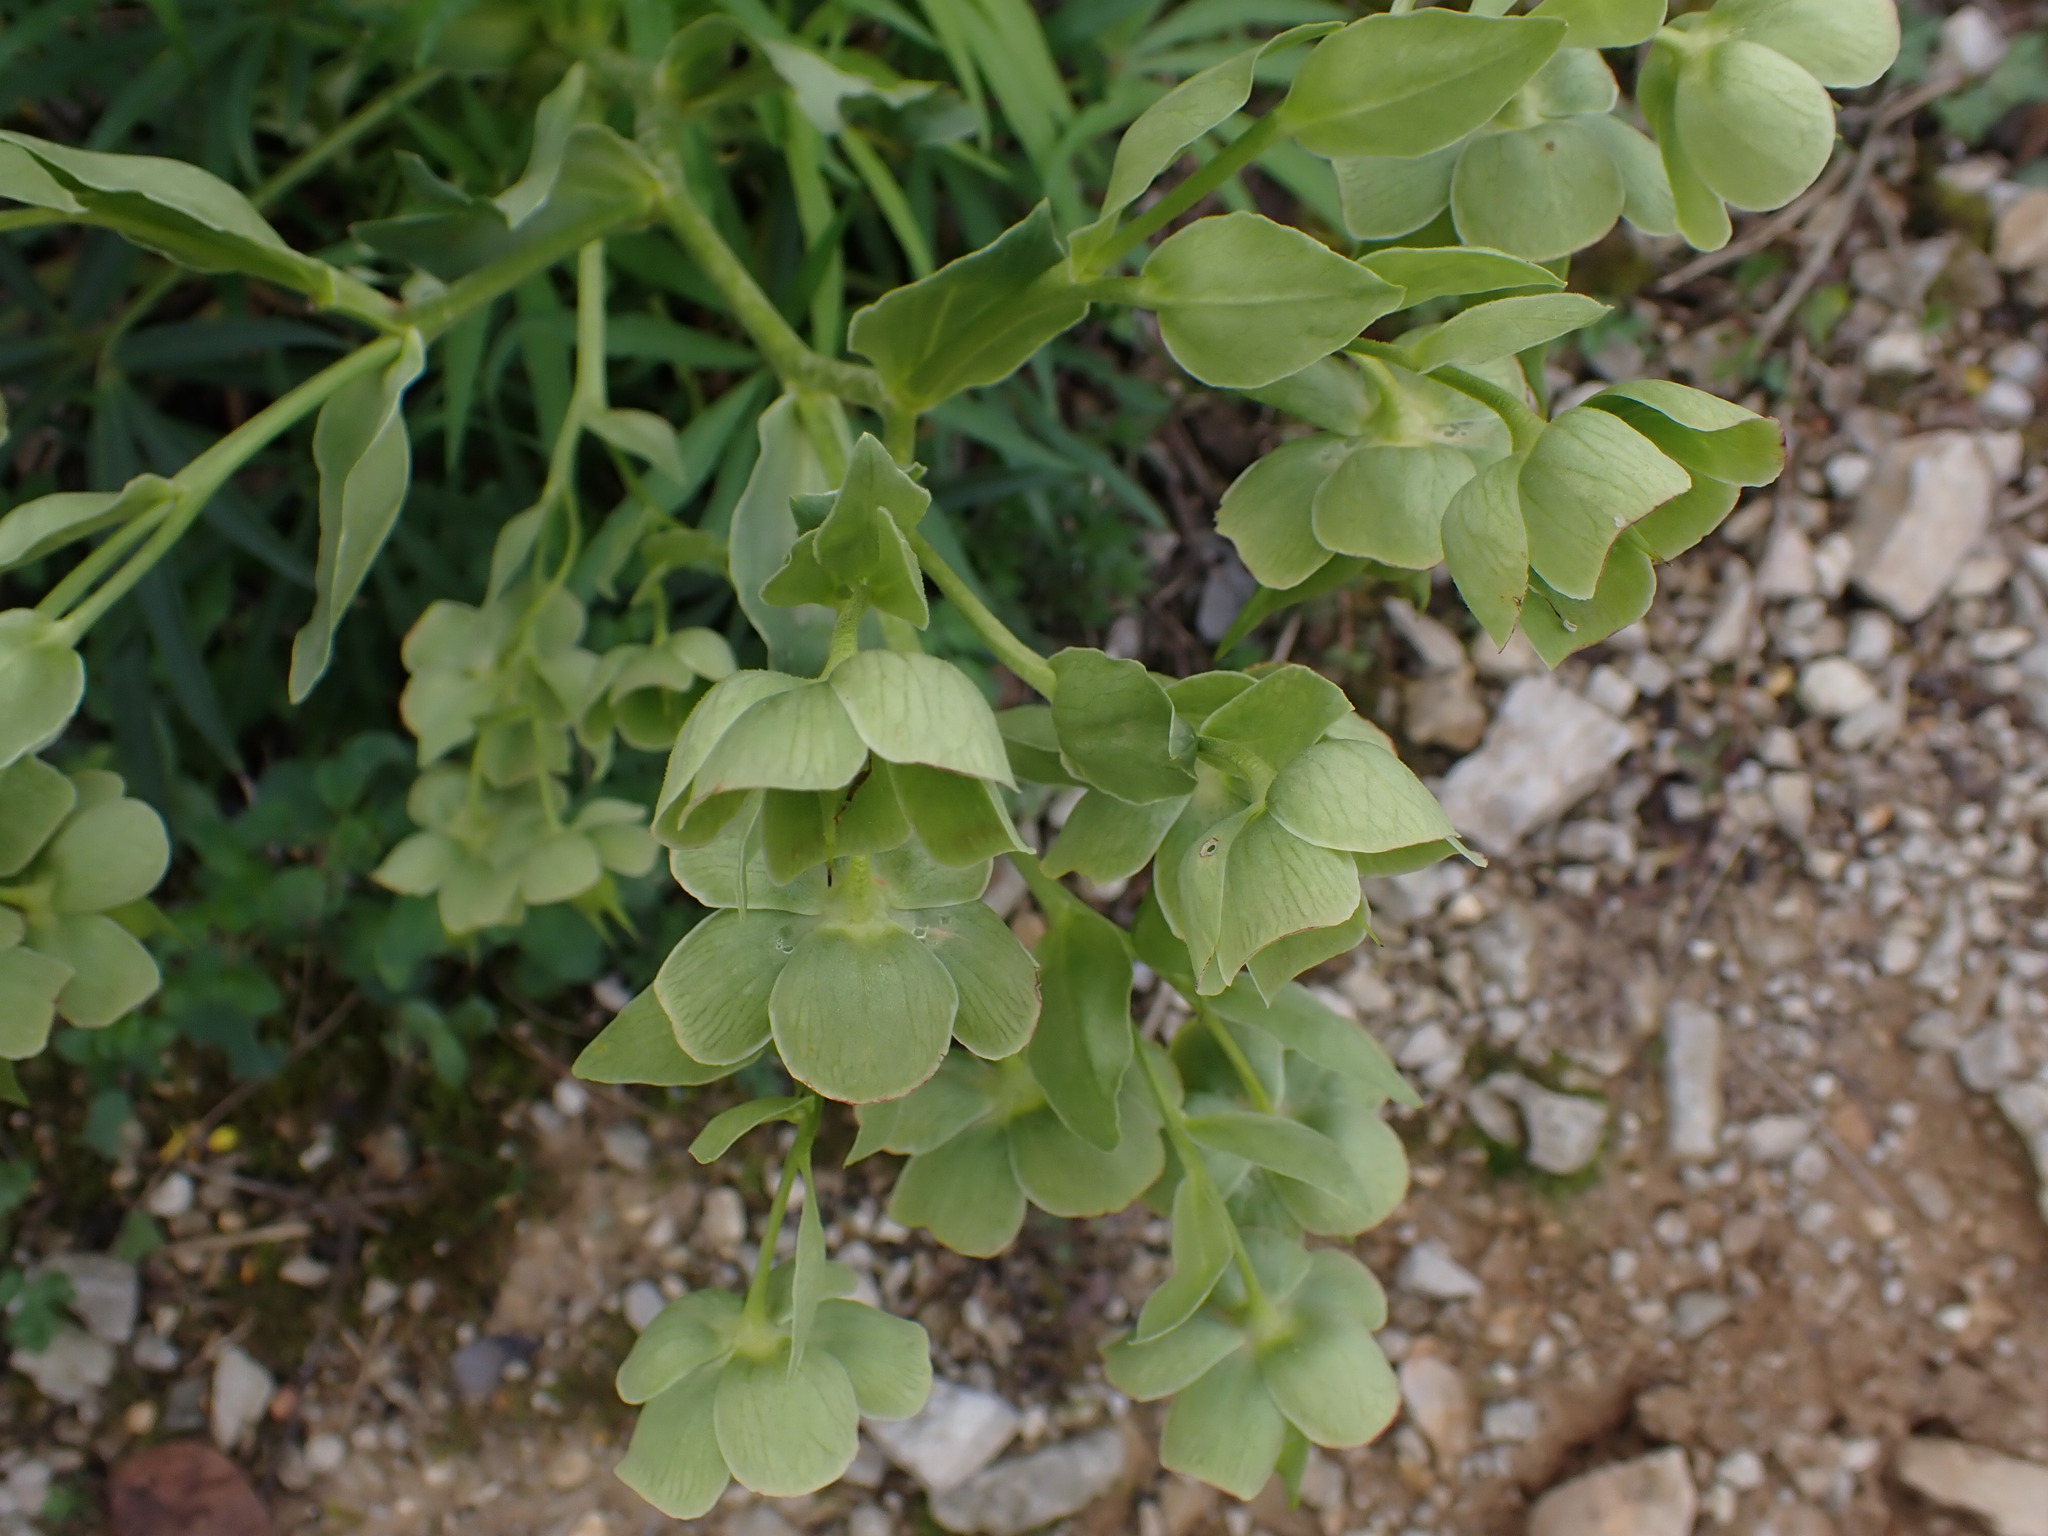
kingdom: Plantae
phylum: Tracheophyta
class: Magnoliopsida
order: Ranunculales
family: Ranunculaceae
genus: Helleborus
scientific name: Helleborus foetidus
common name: Stinking hellebore
